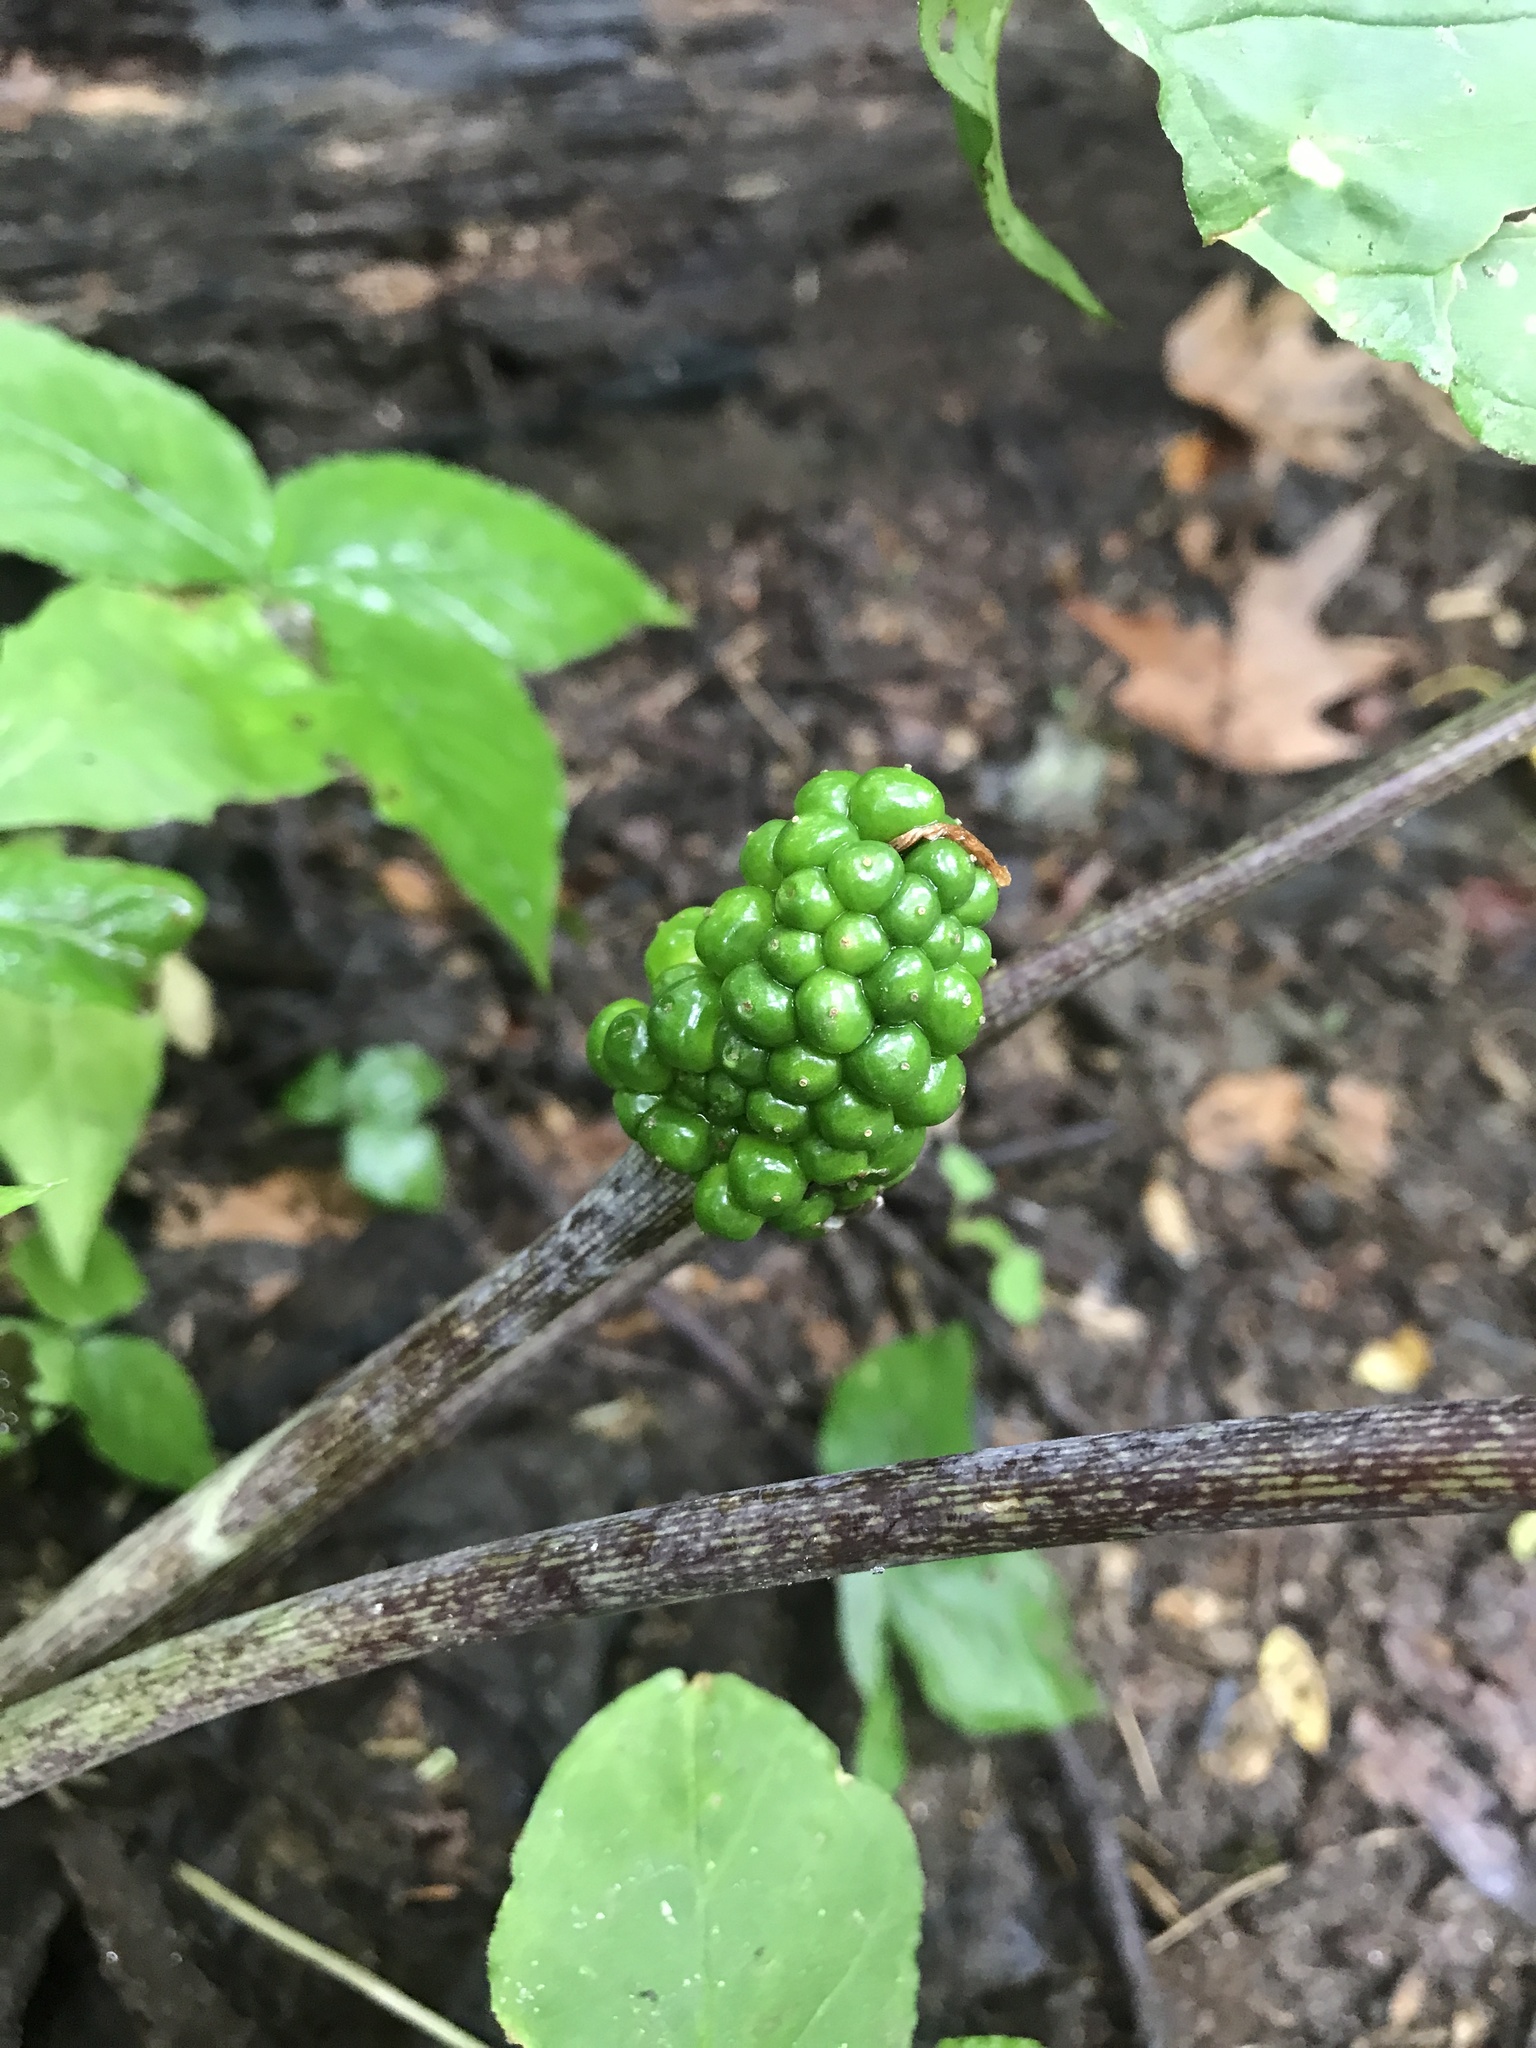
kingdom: Plantae
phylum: Tracheophyta
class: Liliopsida
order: Alismatales
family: Araceae
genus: Arisaema
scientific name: Arisaema triphyllum
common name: Jack-in-the-pulpit
